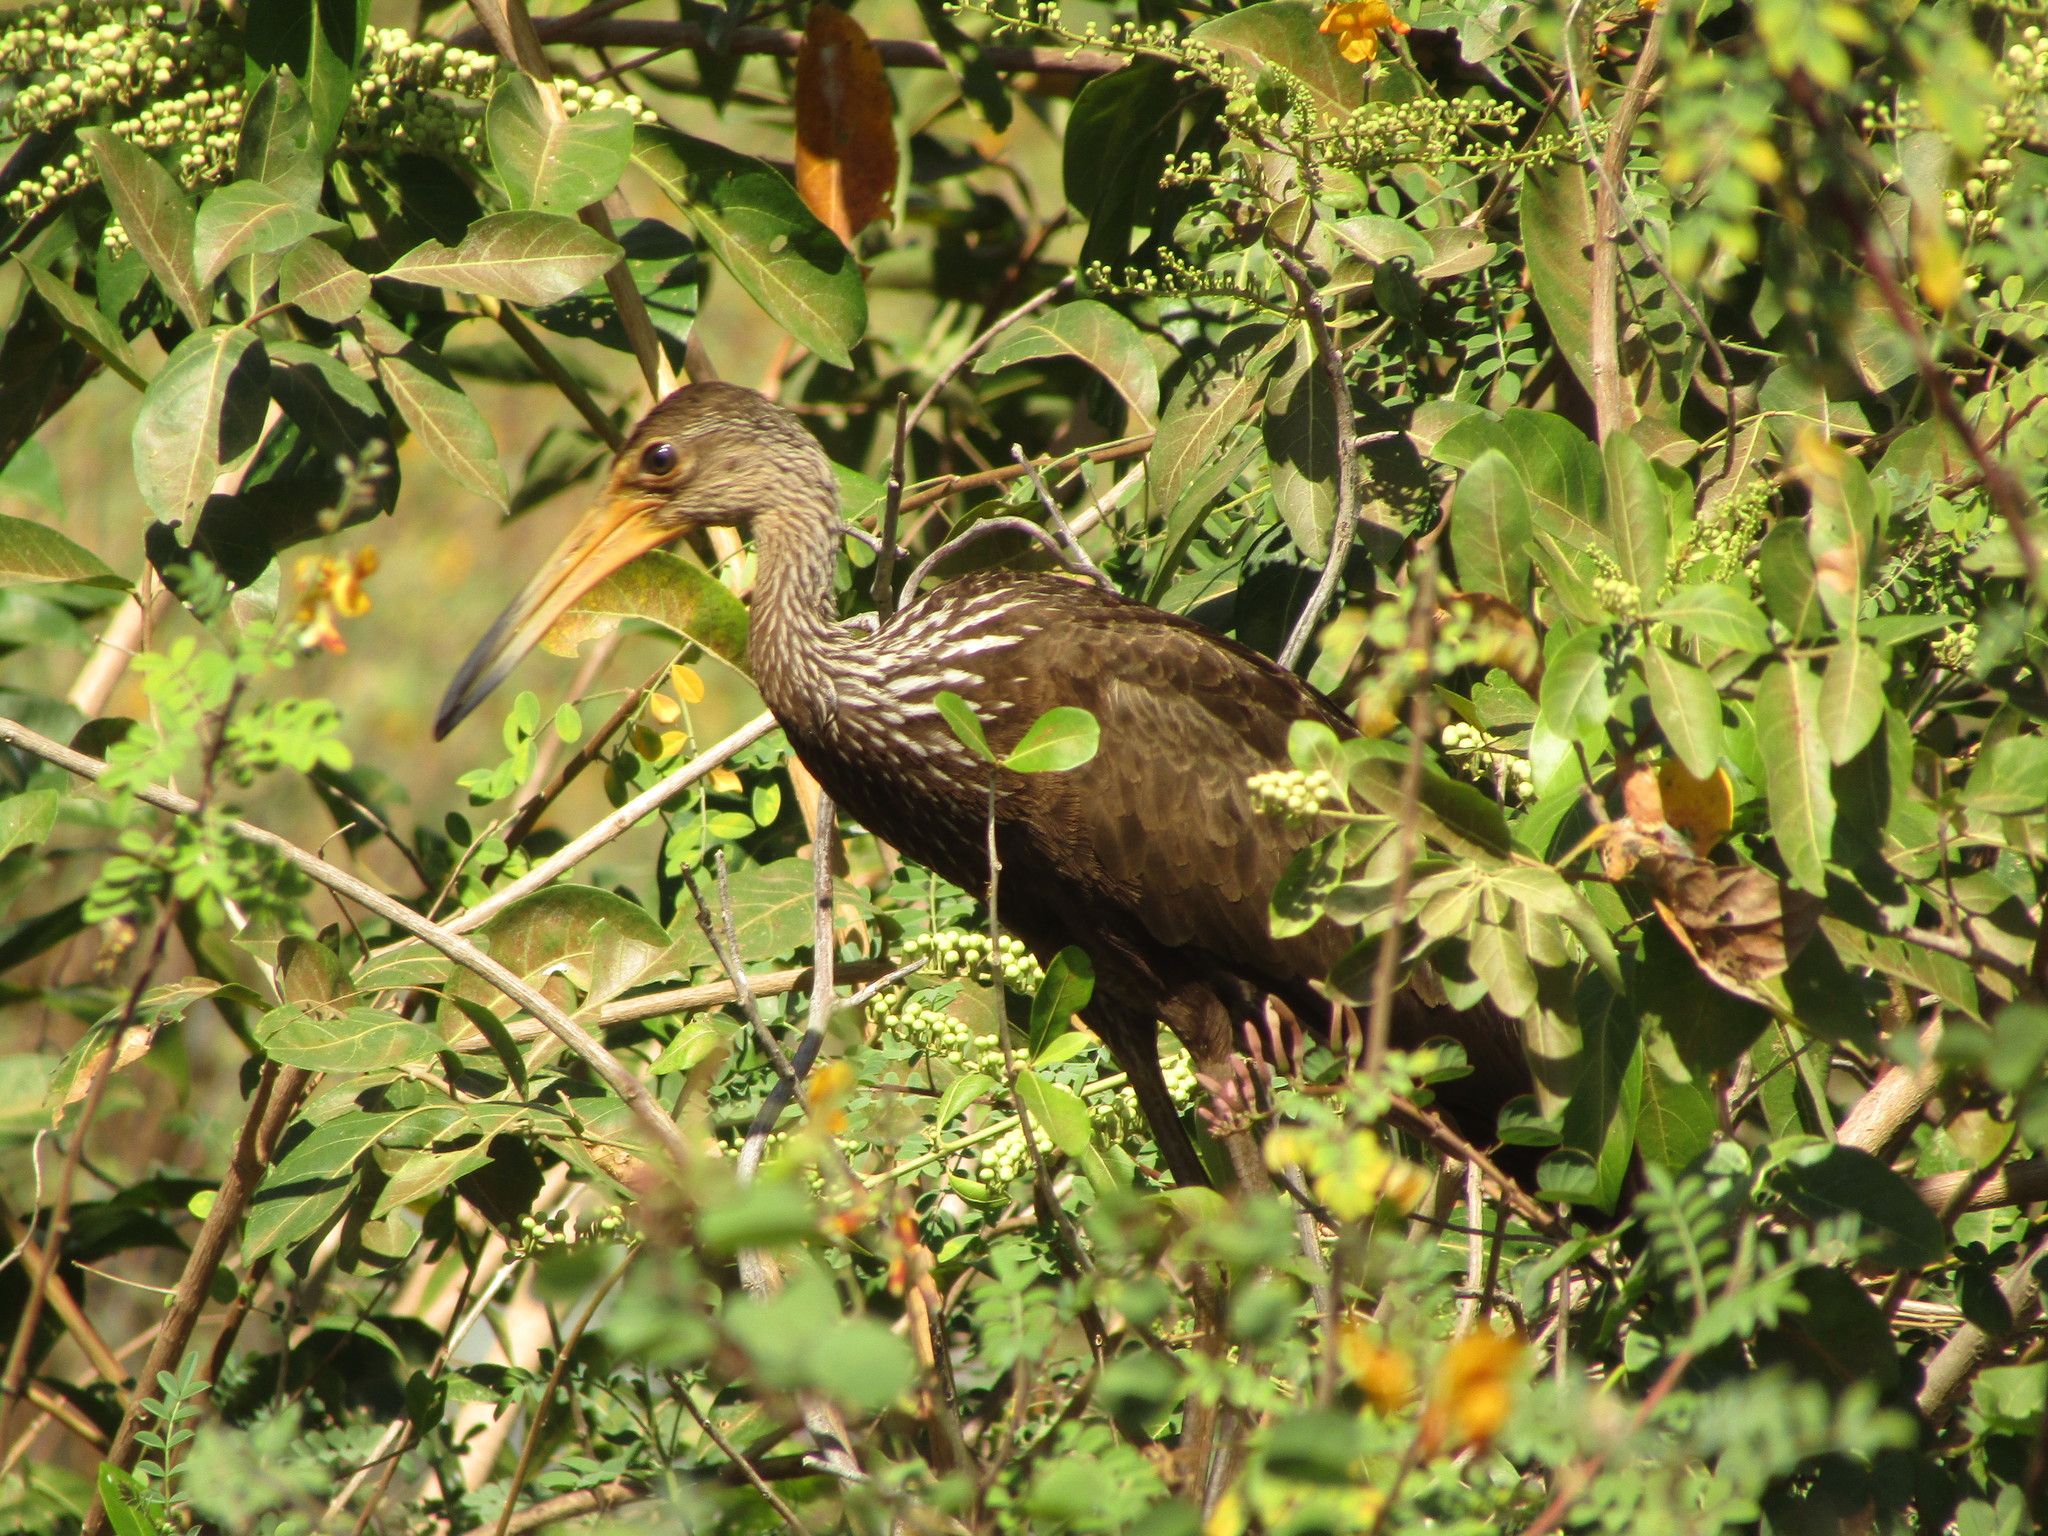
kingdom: Animalia
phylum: Chordata
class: Aves
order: Gruiformes
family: Aramidae
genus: Aramus
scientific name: Aramus guarauna
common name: Limpkin
